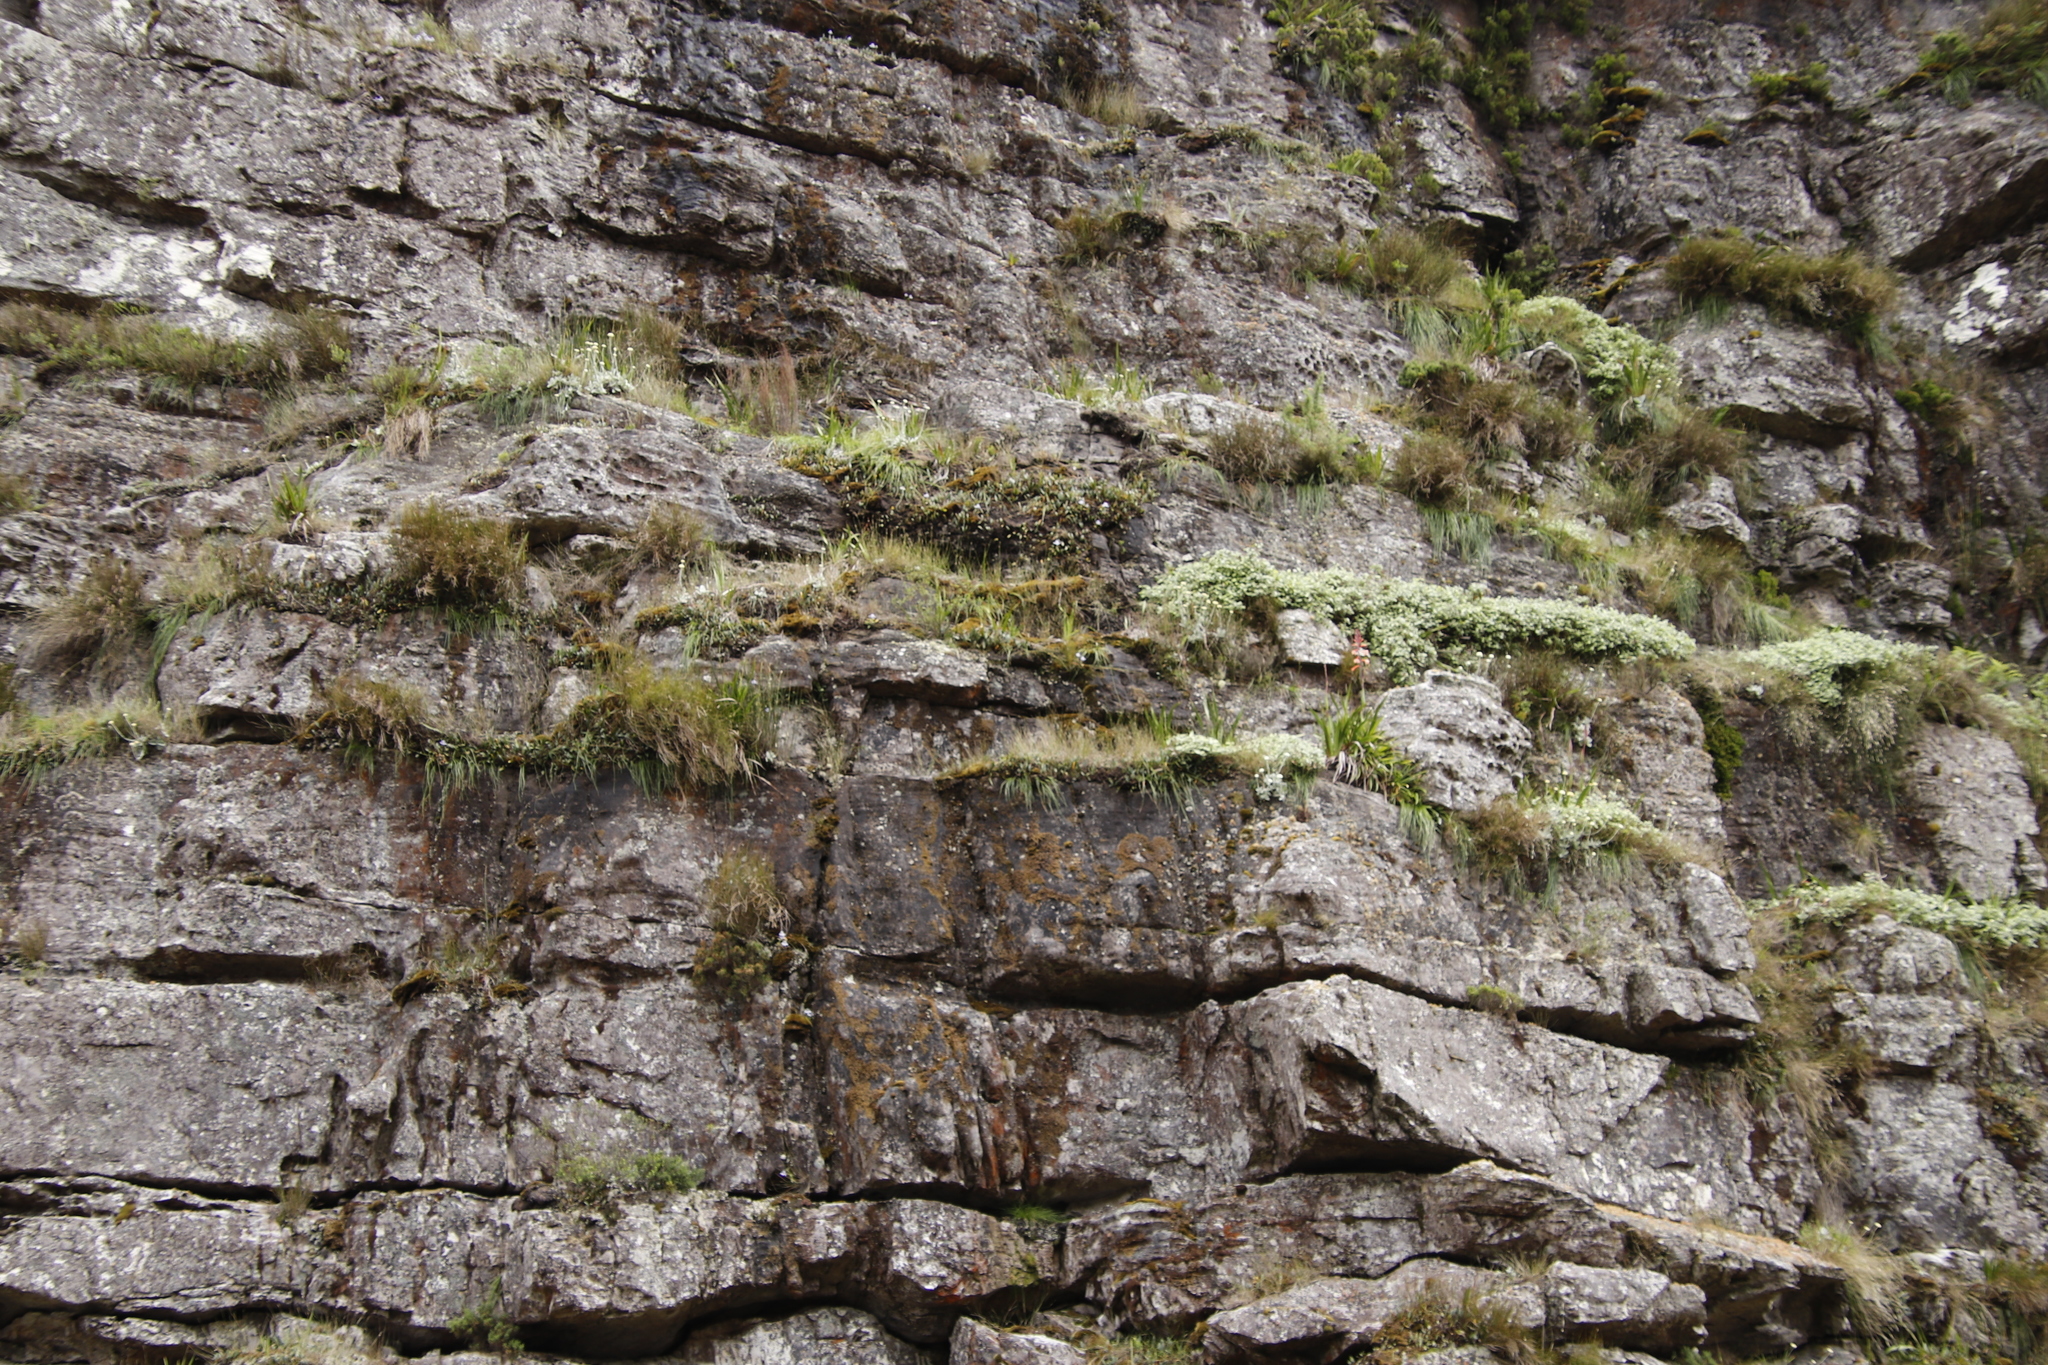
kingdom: Plantae
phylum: Tracheophyta
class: Liliopsida
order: Asparagales
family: Orchidaceae
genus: Disa
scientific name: Disa longicornu
